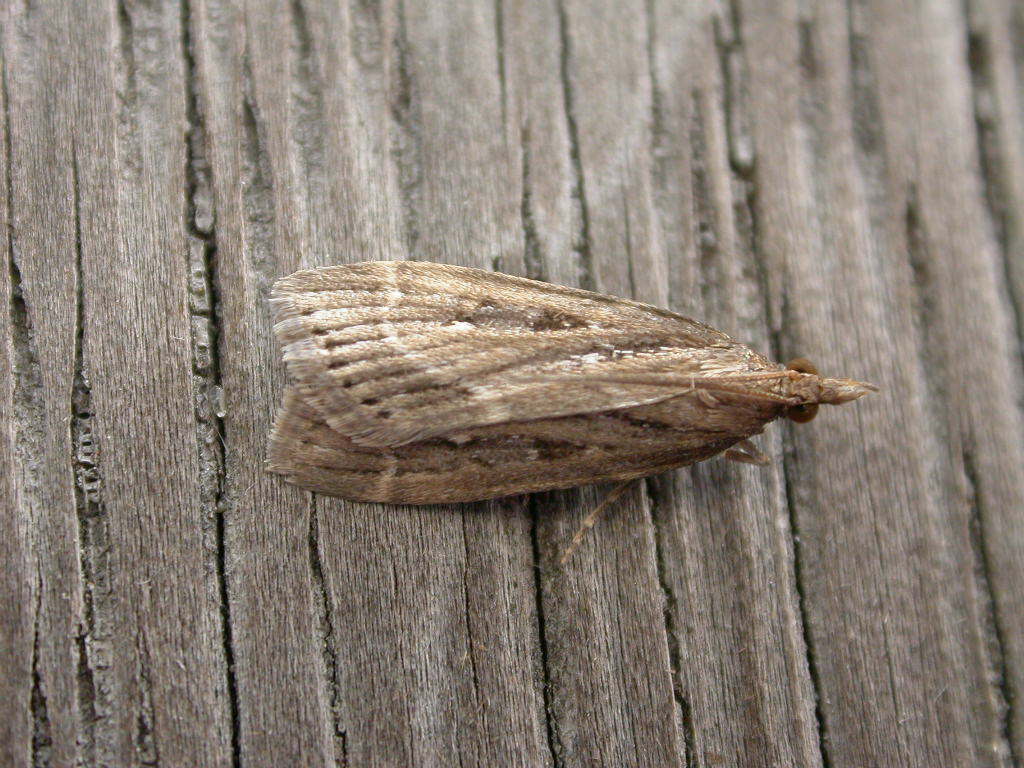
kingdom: Animalia
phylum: Arthropoda
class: Insecta
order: Lepidoptera
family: Crambidae
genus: Eudonia
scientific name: Eudonia octophora
